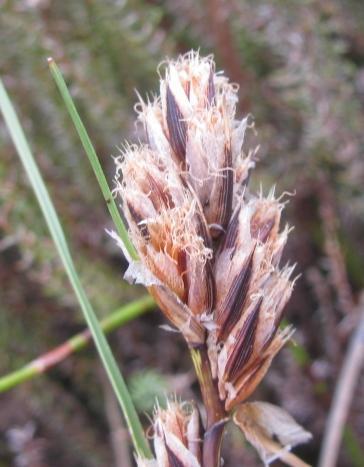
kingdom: Plantae
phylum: Tracheophyta
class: Liliopsida
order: Poales
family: Cyperaceae
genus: Ficinia
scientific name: Ficinia monticola
